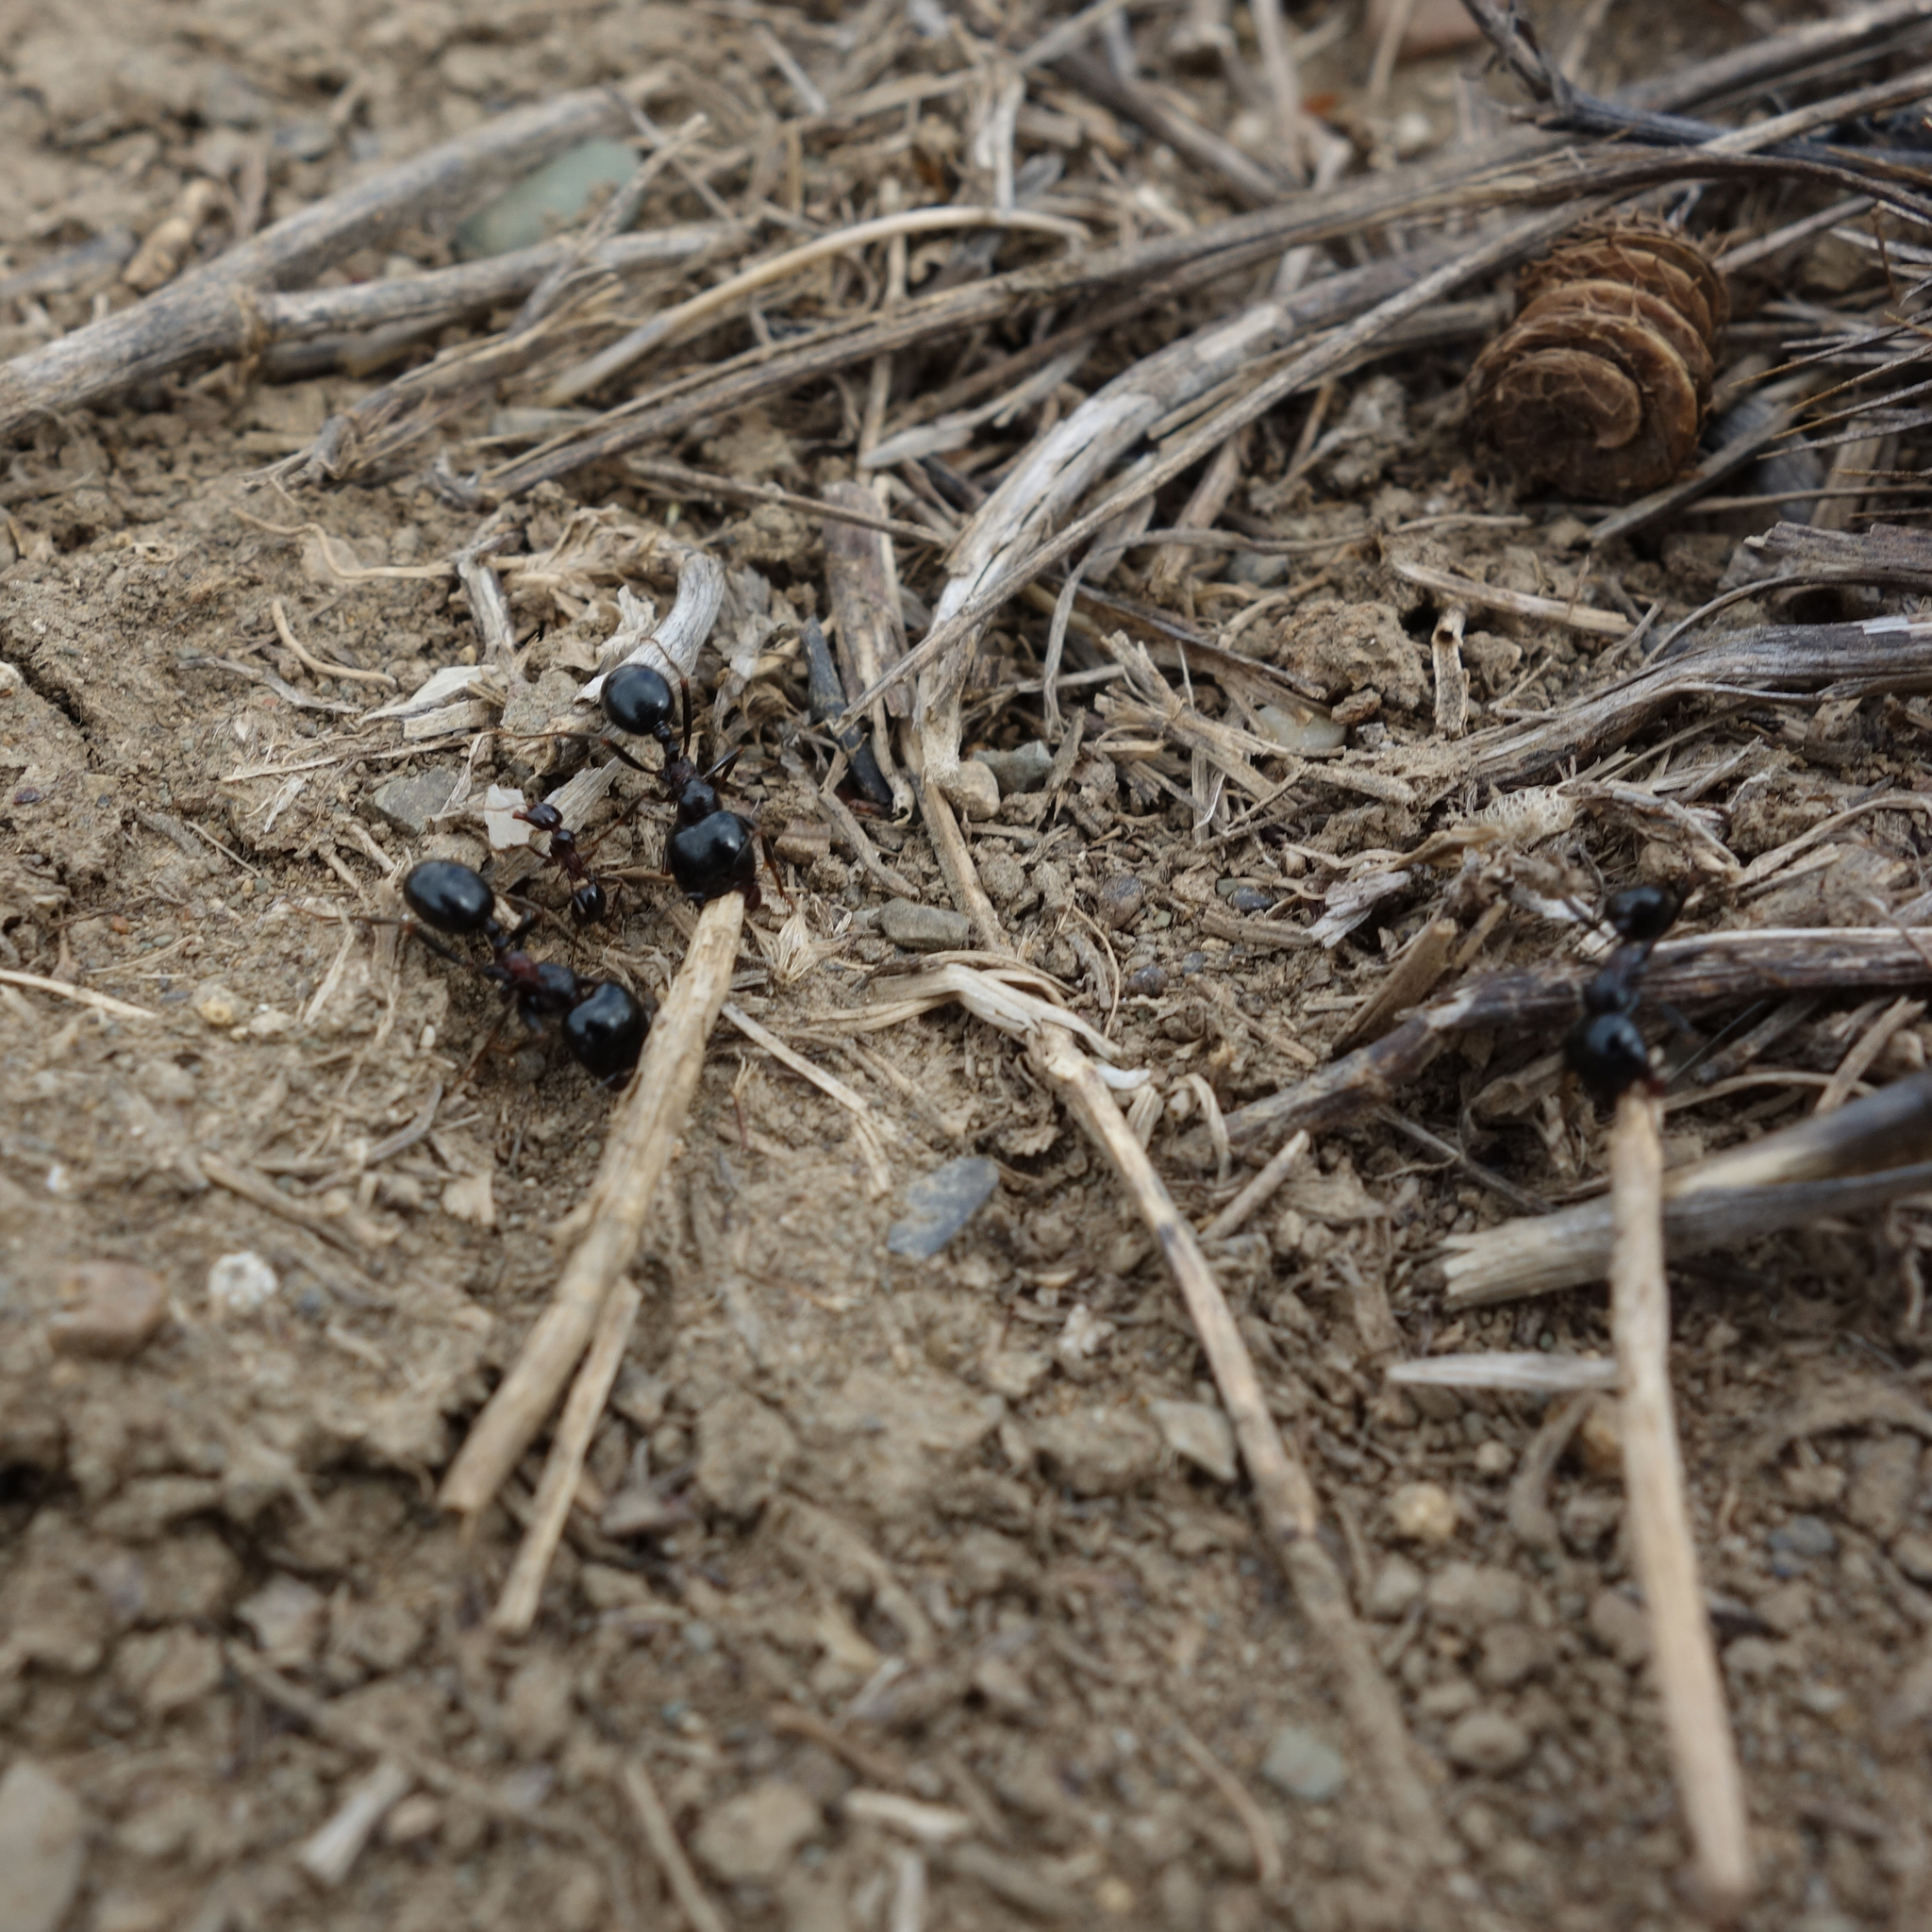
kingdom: Animalia
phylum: Arthropoda
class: Insecta
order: Hymenoptera
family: Formicidae
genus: Messor
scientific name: Messor wasmanni
